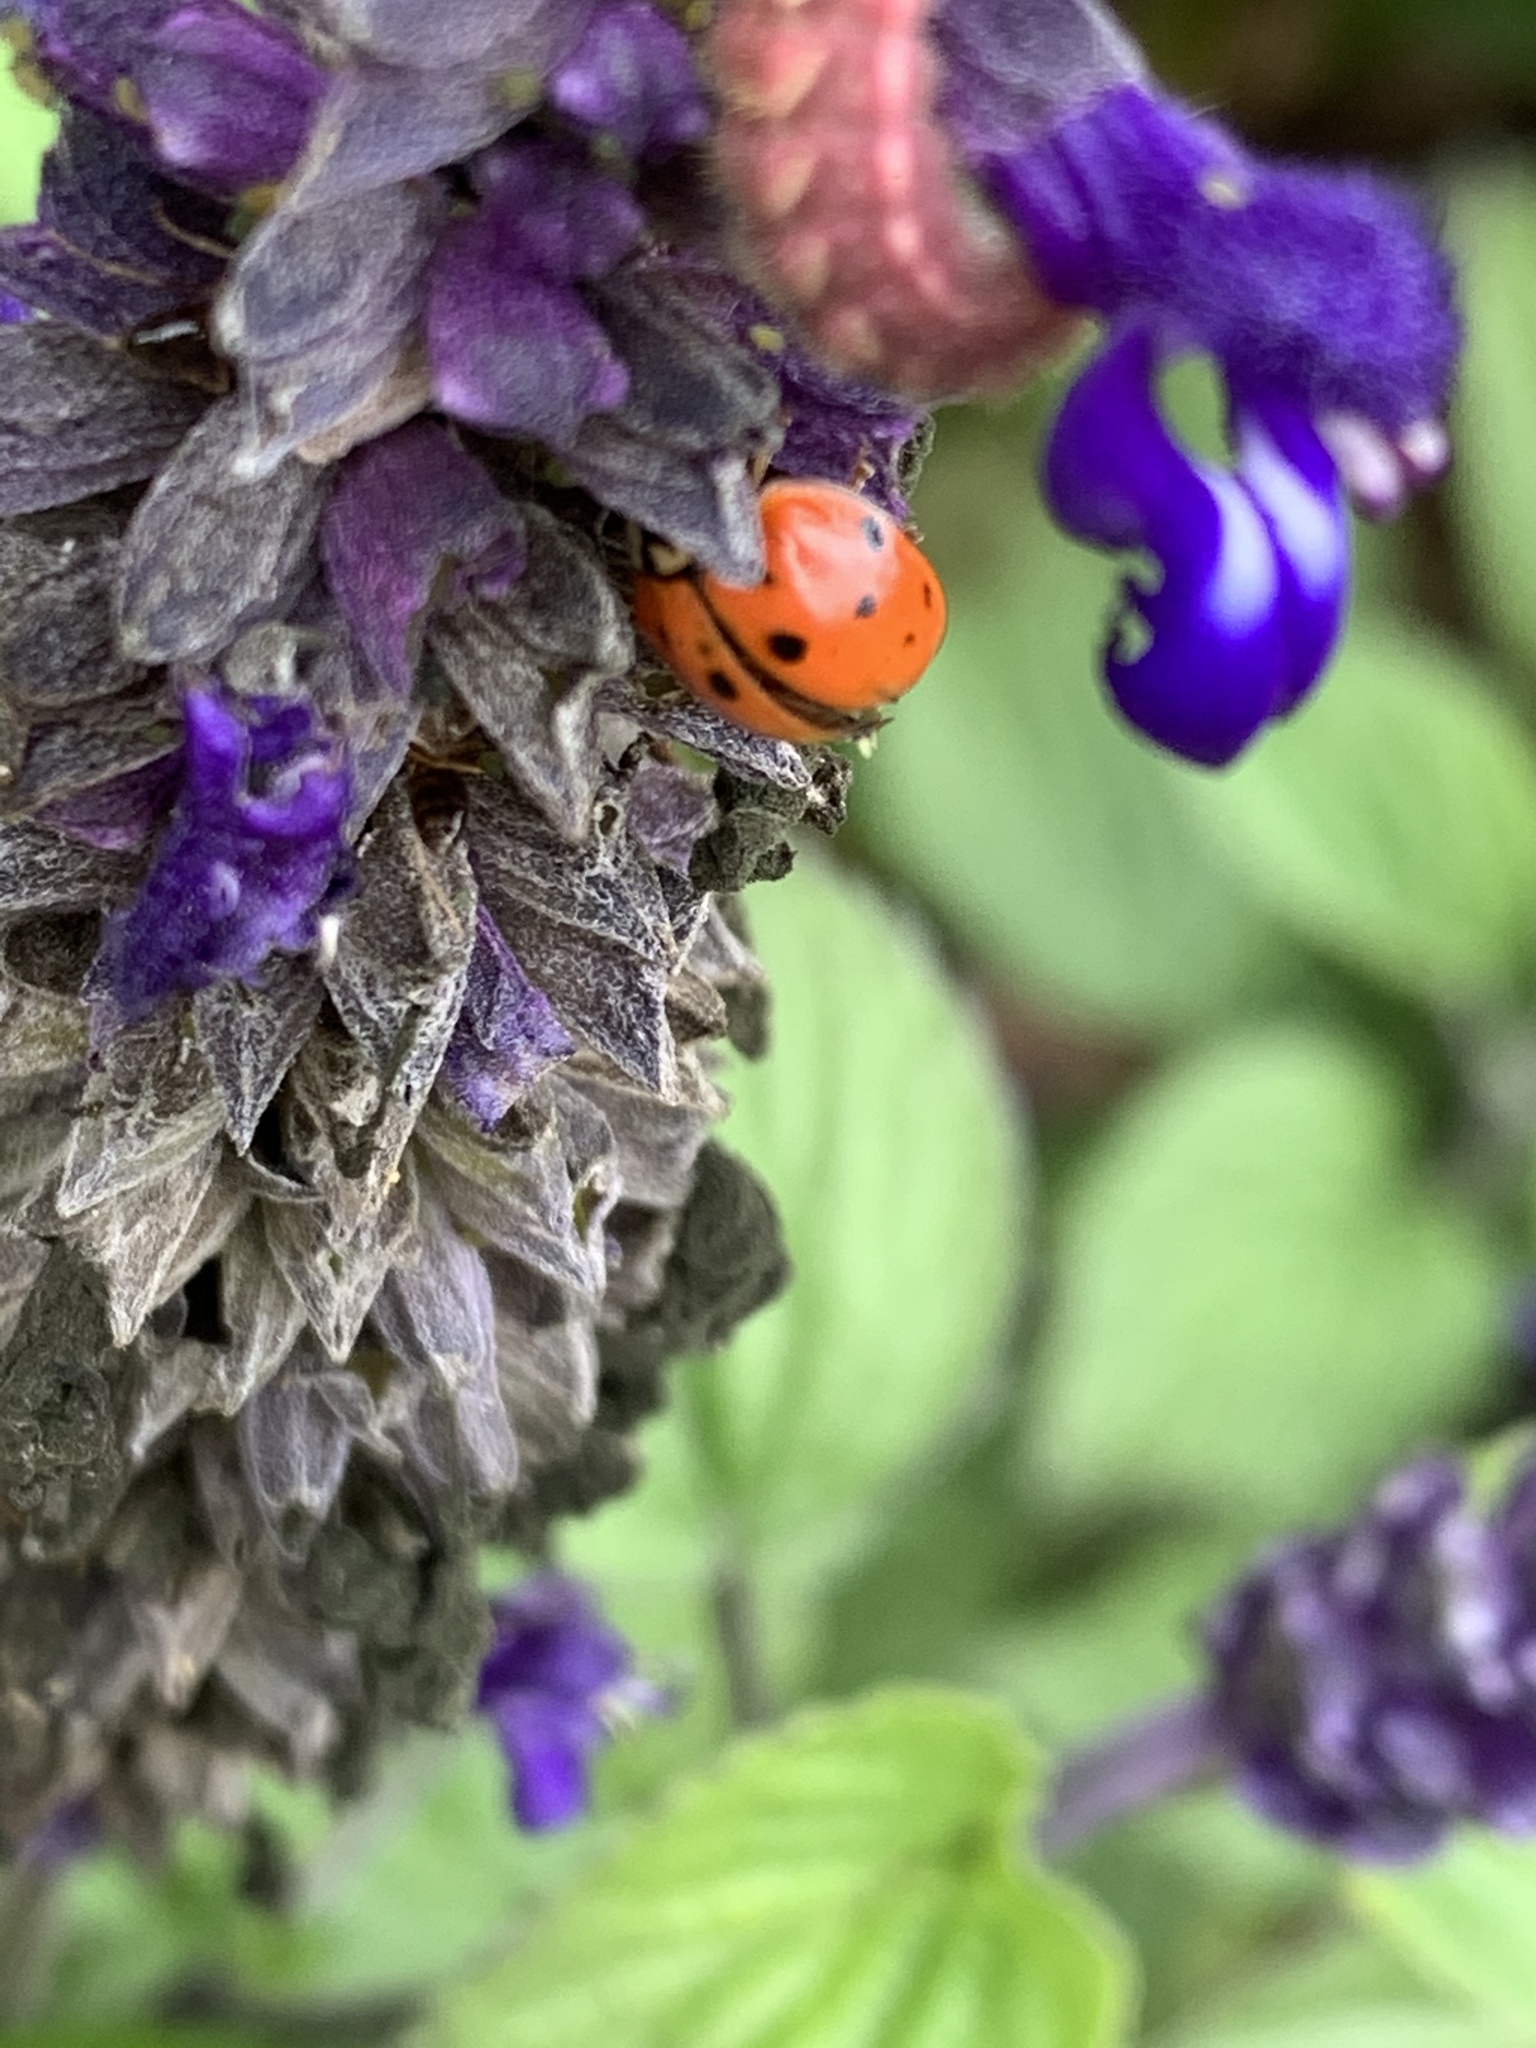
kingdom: Animalia
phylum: Arthropoda
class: Insecta
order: Coleoptera
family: Coccinellidae
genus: Harmonia
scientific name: Harmonia axyridis
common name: Harlequin ladybird
